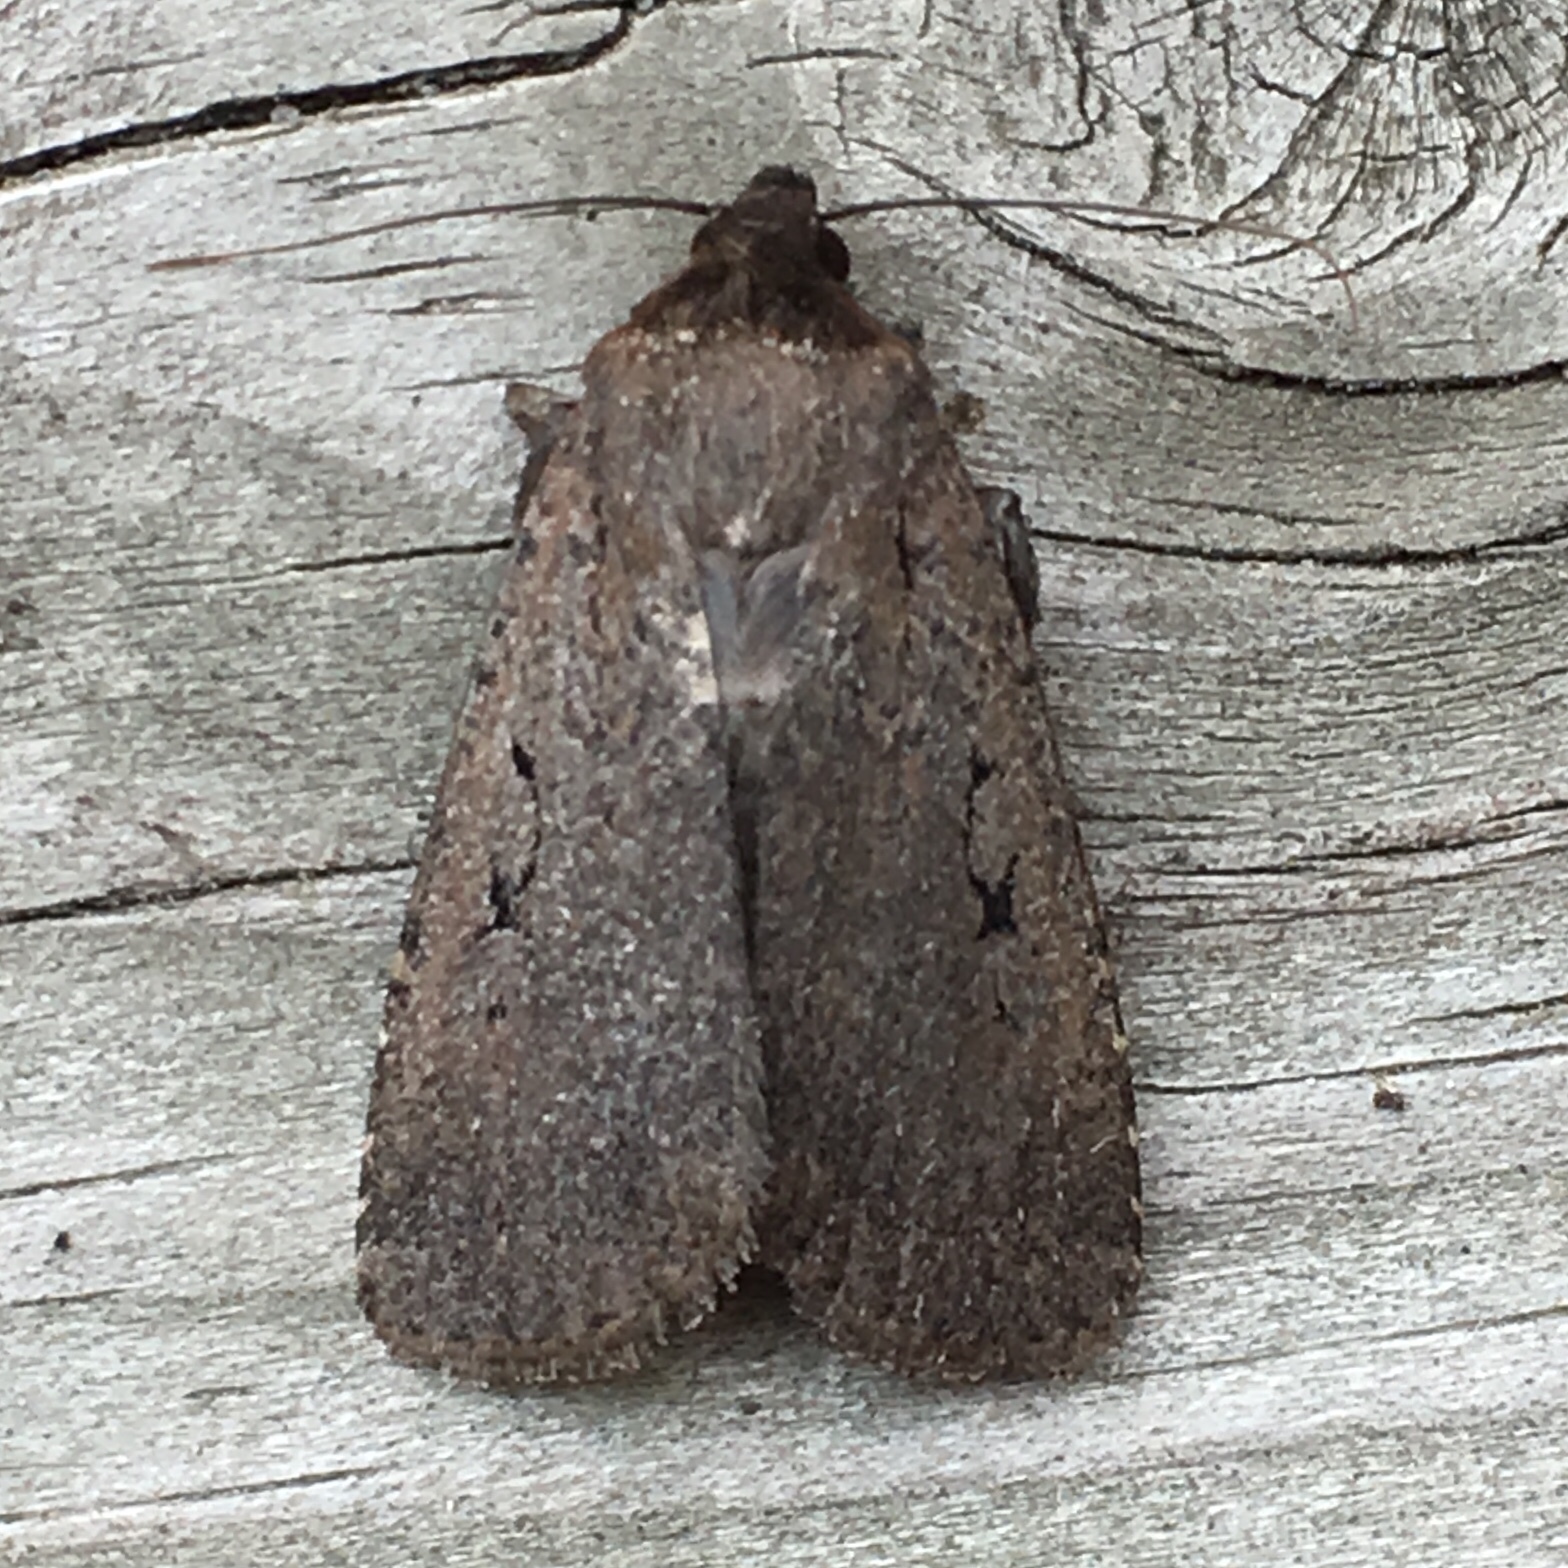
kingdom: Animalia
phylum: Arthropoda
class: Insecta
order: Lepidoptera
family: Noctuidae
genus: Spaelotis
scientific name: Spaelotis clandestina
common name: Clandestine dart
